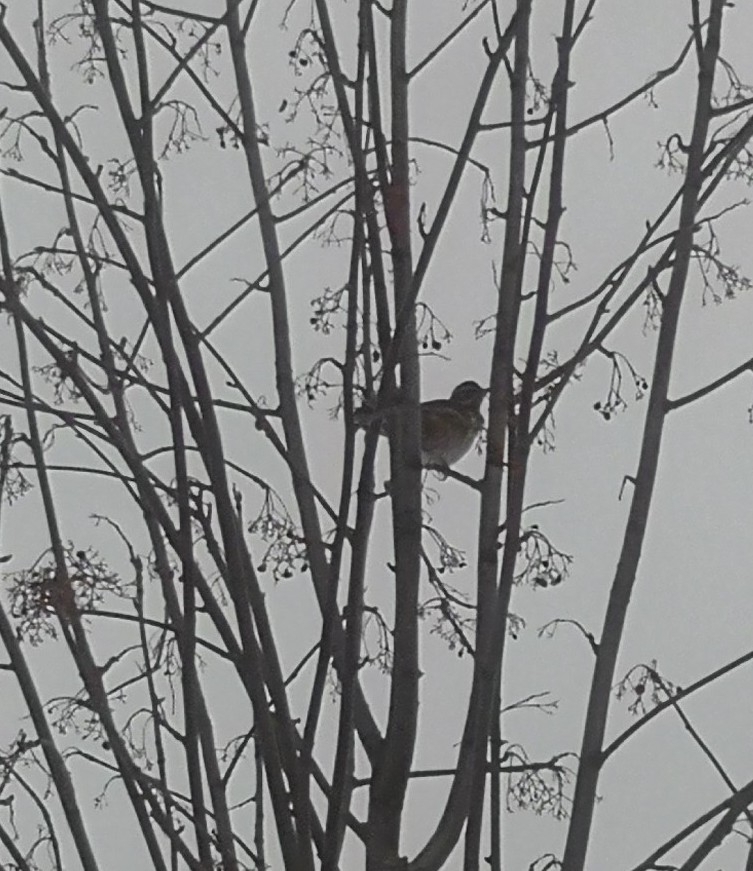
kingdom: Animalia
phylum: Chordata
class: Aves
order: Passeriformes
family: Turdidae
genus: Turdus
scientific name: Turdus iliacus
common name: Redwing
